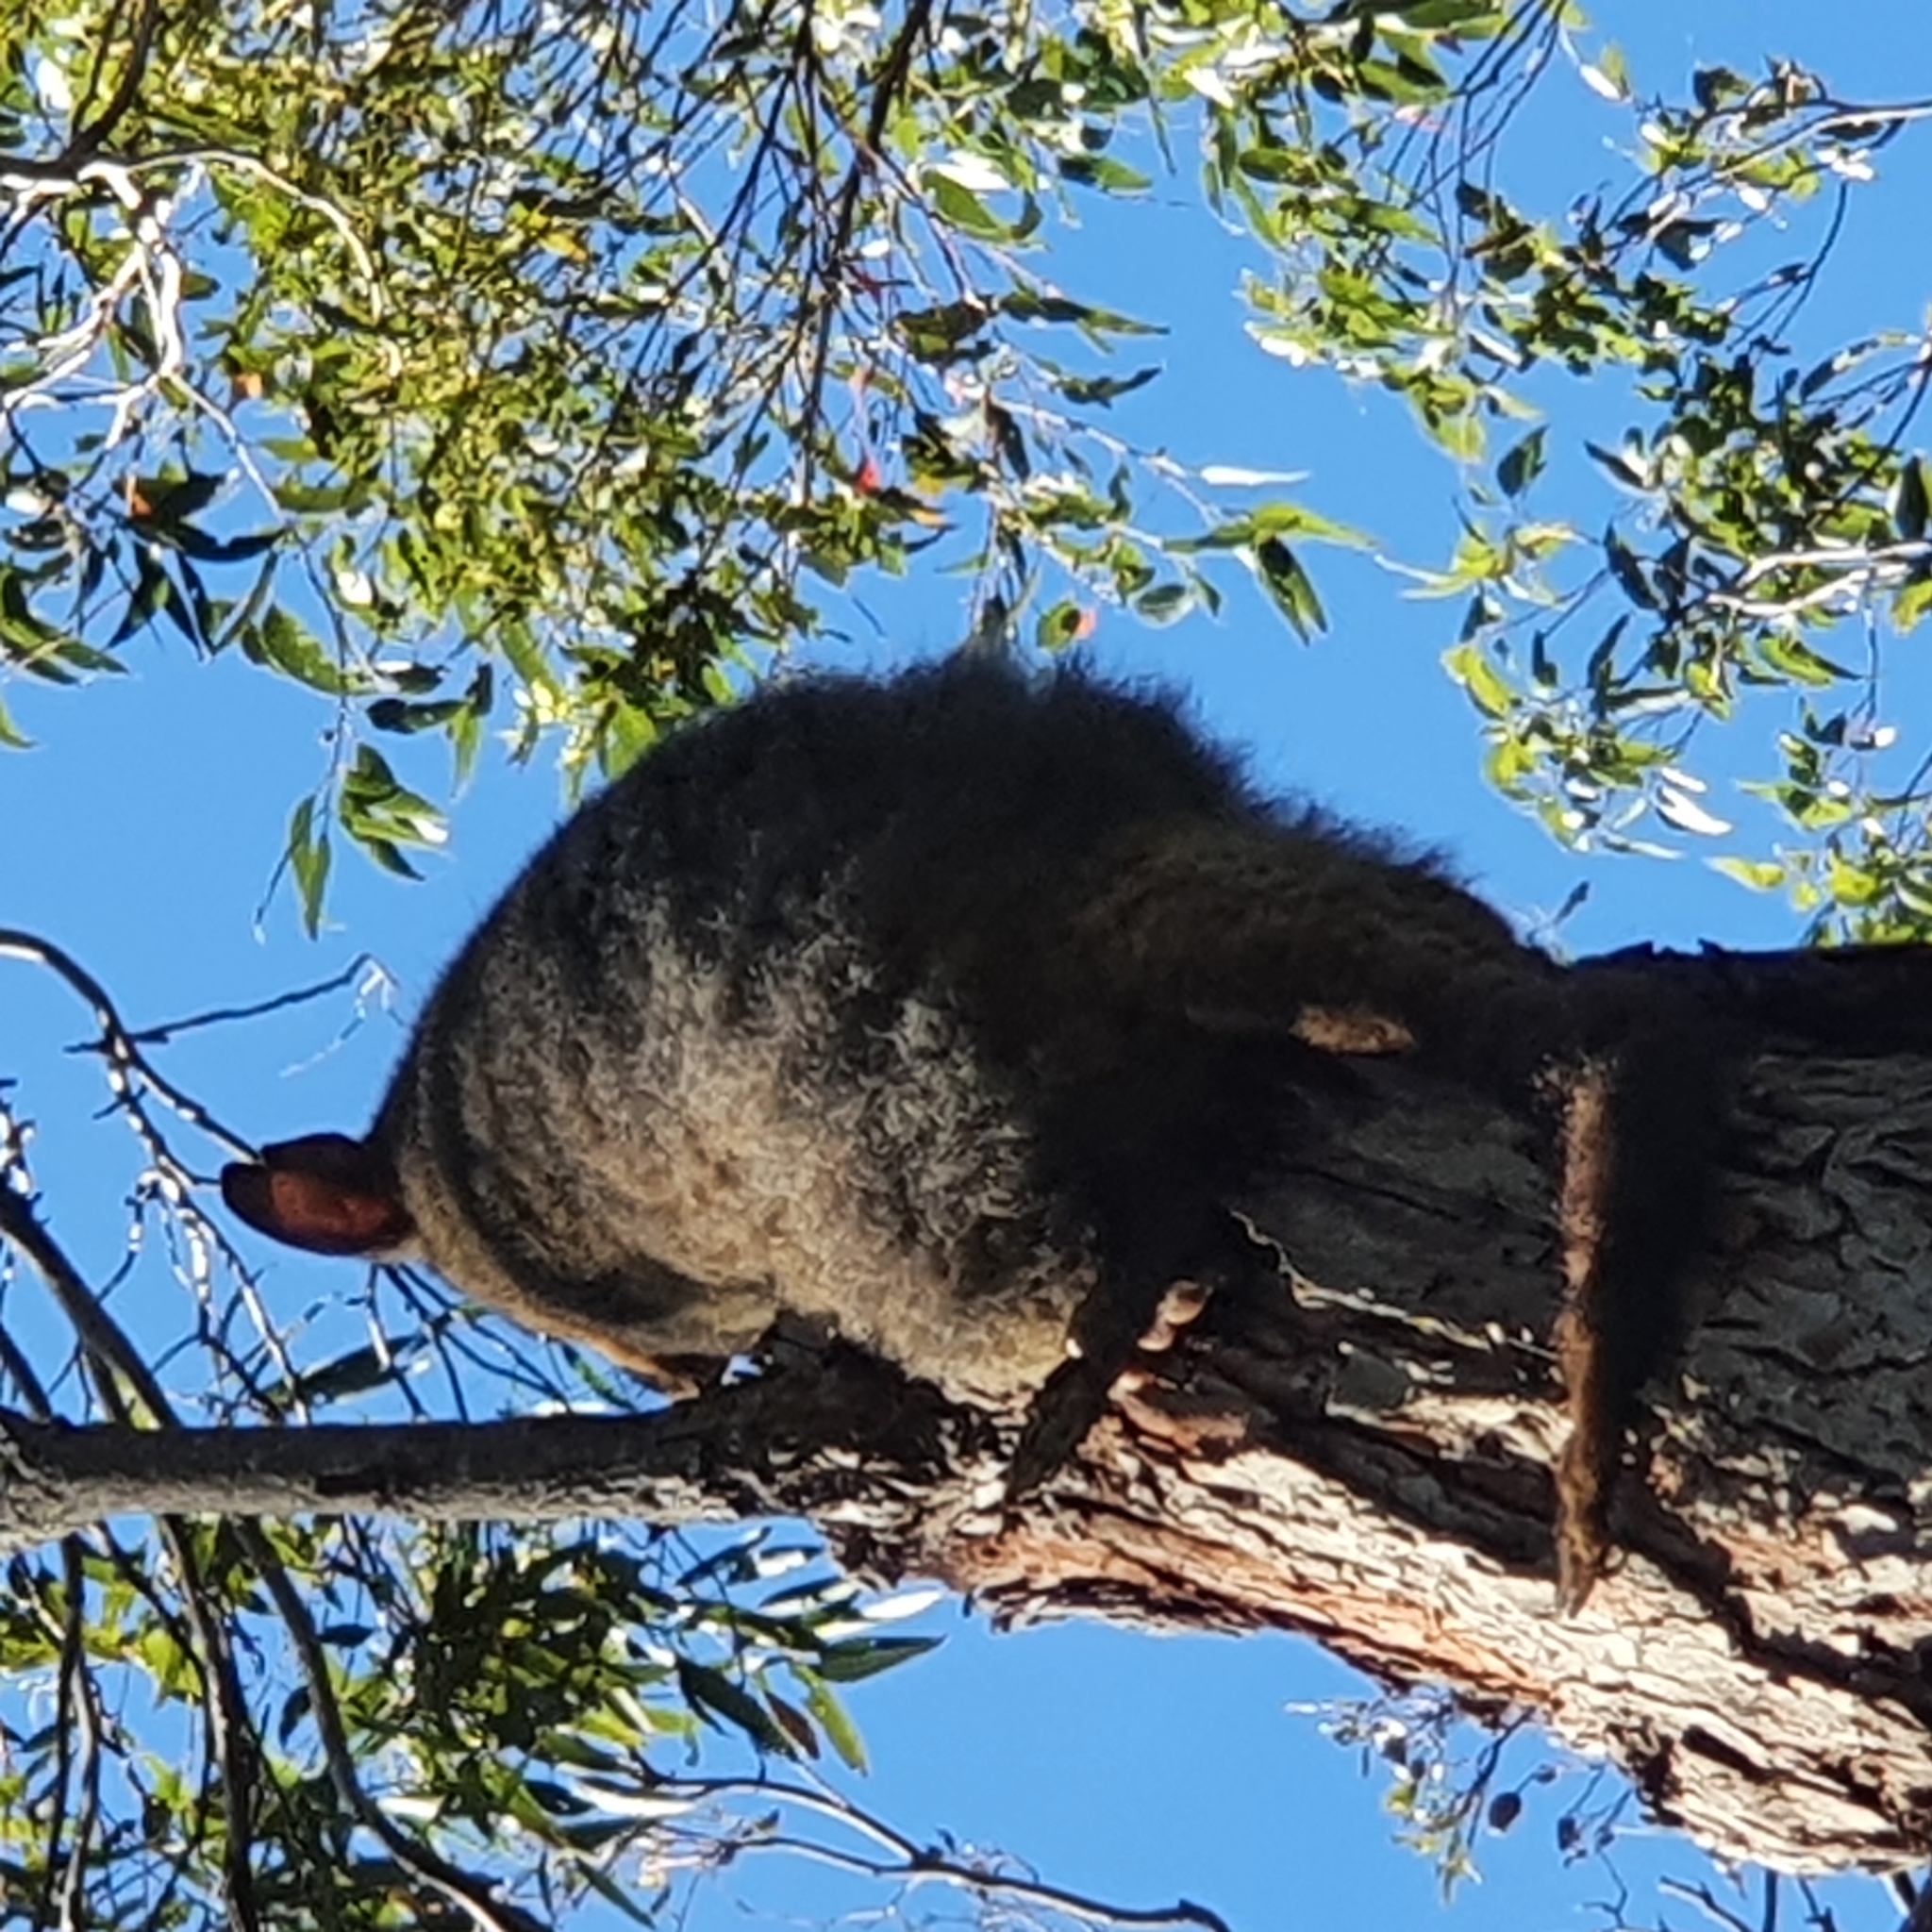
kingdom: Animalia
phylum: Chordata
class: Mammalia
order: Diprotodontia
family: Phalangeridae
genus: Trichosurus
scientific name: Trichosurus vulpecula
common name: Common brushtail
